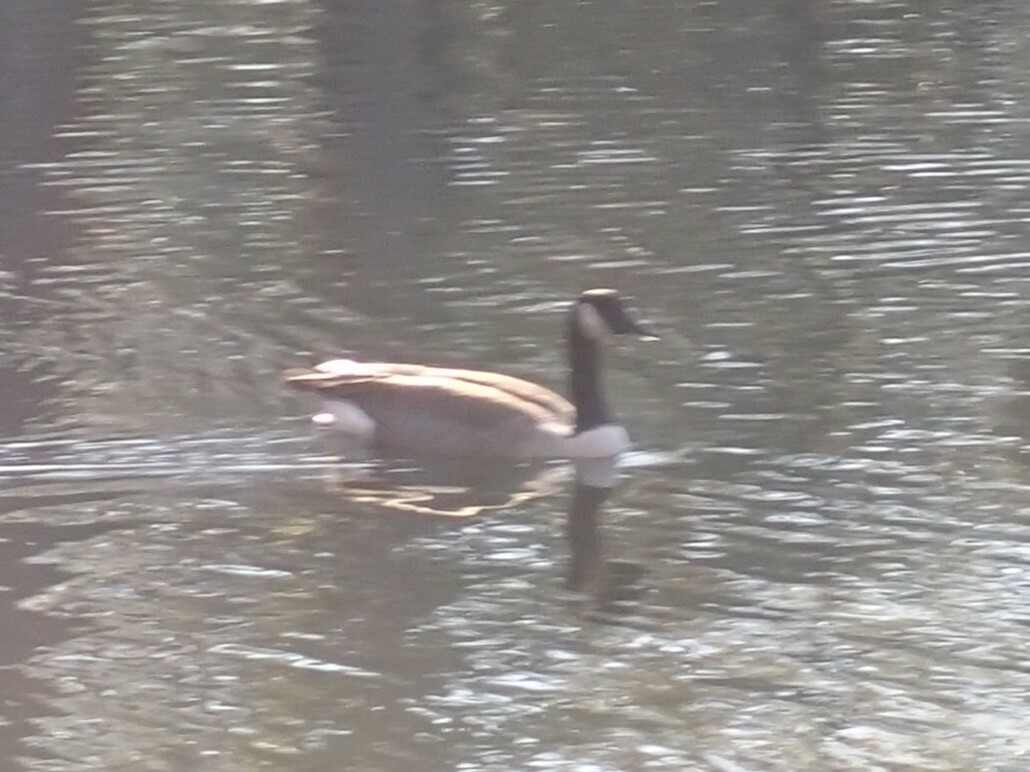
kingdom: Animalia
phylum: Chordata
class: Aves
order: Anseriformes
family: Anatidae
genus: Branta
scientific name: Branta canadensis
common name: Canada goose
